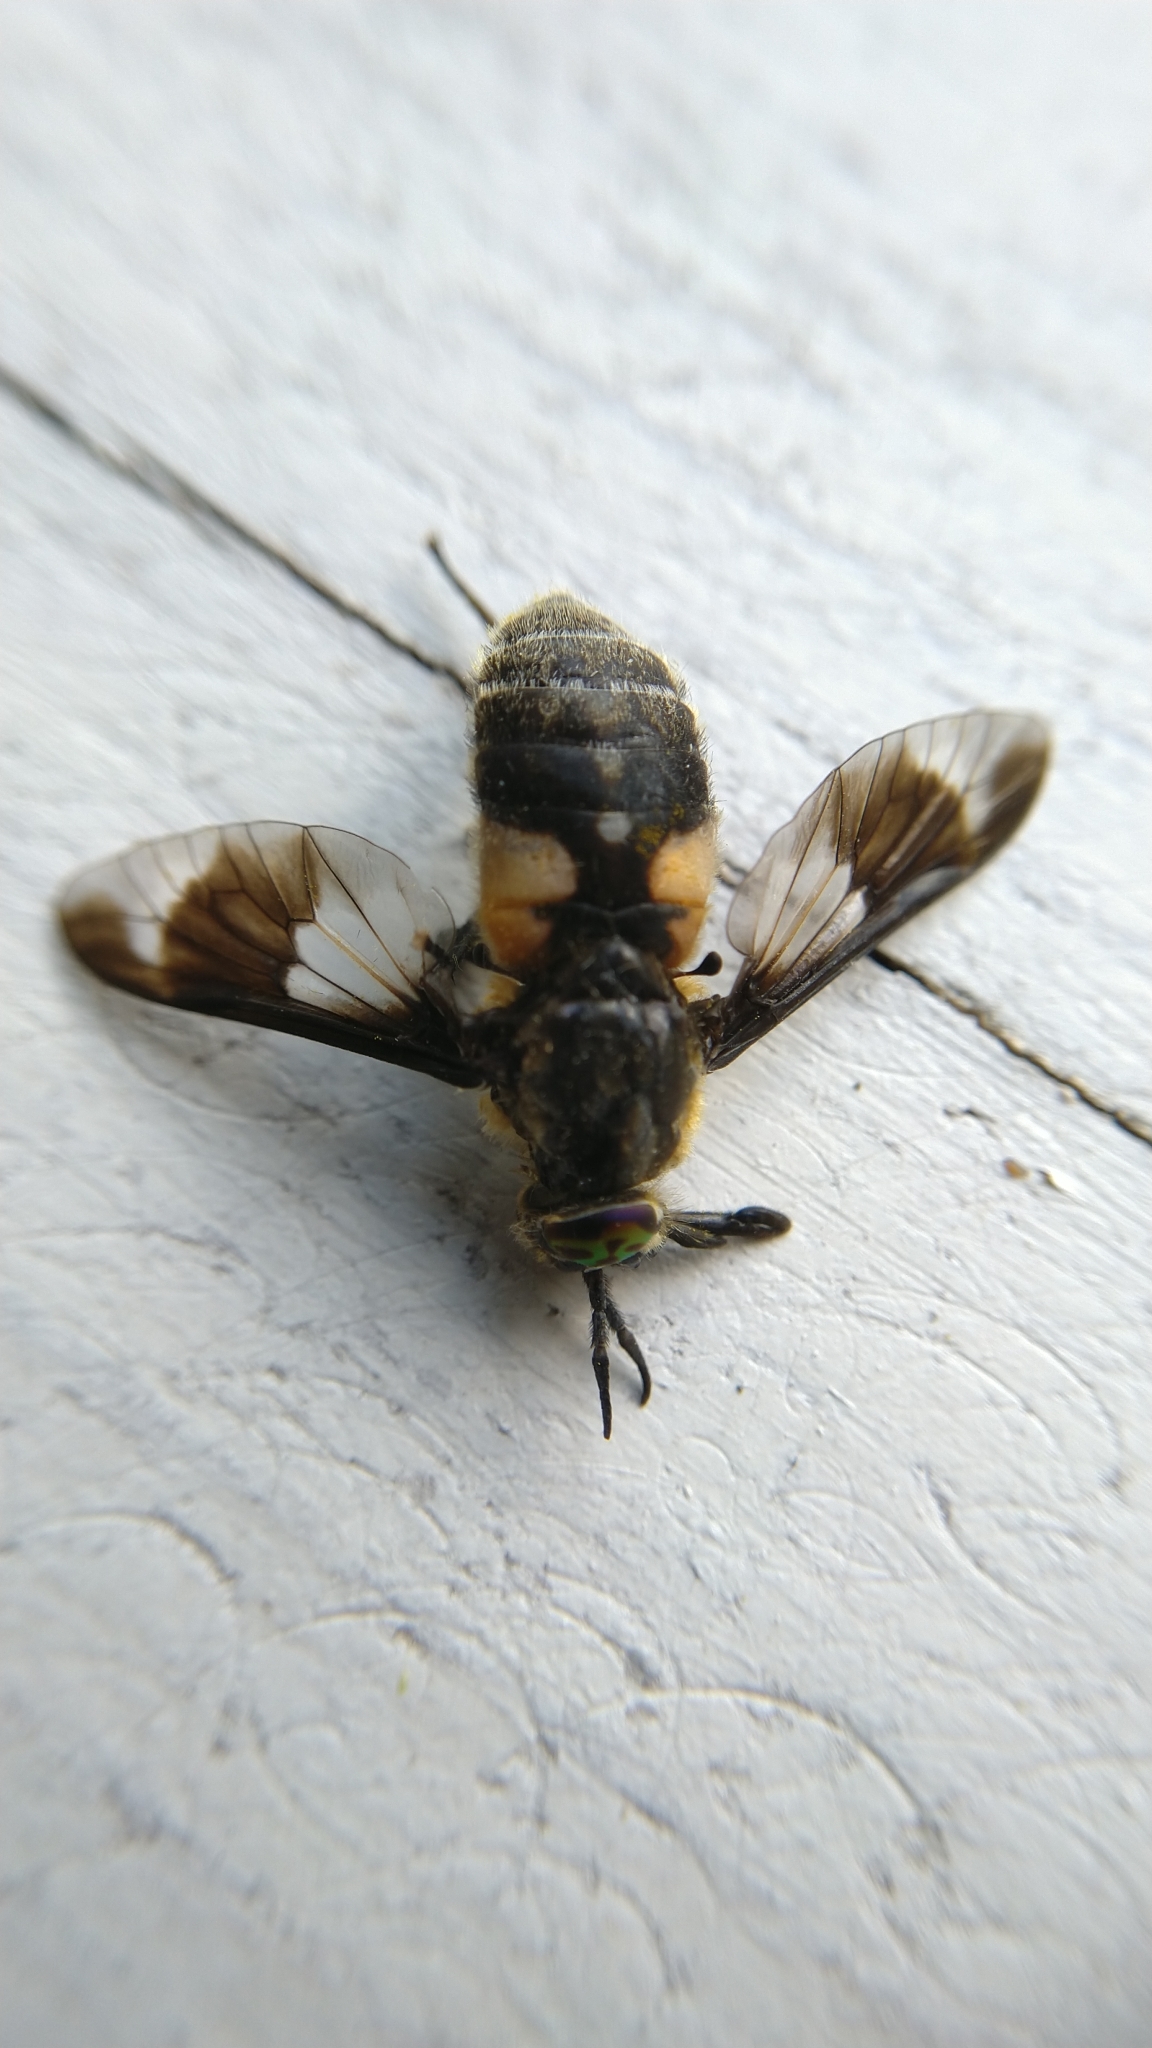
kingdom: Animalia
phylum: Arthropoda
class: Insecta
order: Diptera
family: Tabanidae
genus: Chrysops
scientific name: Chrysops caecutiens
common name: Splayed deerfly
